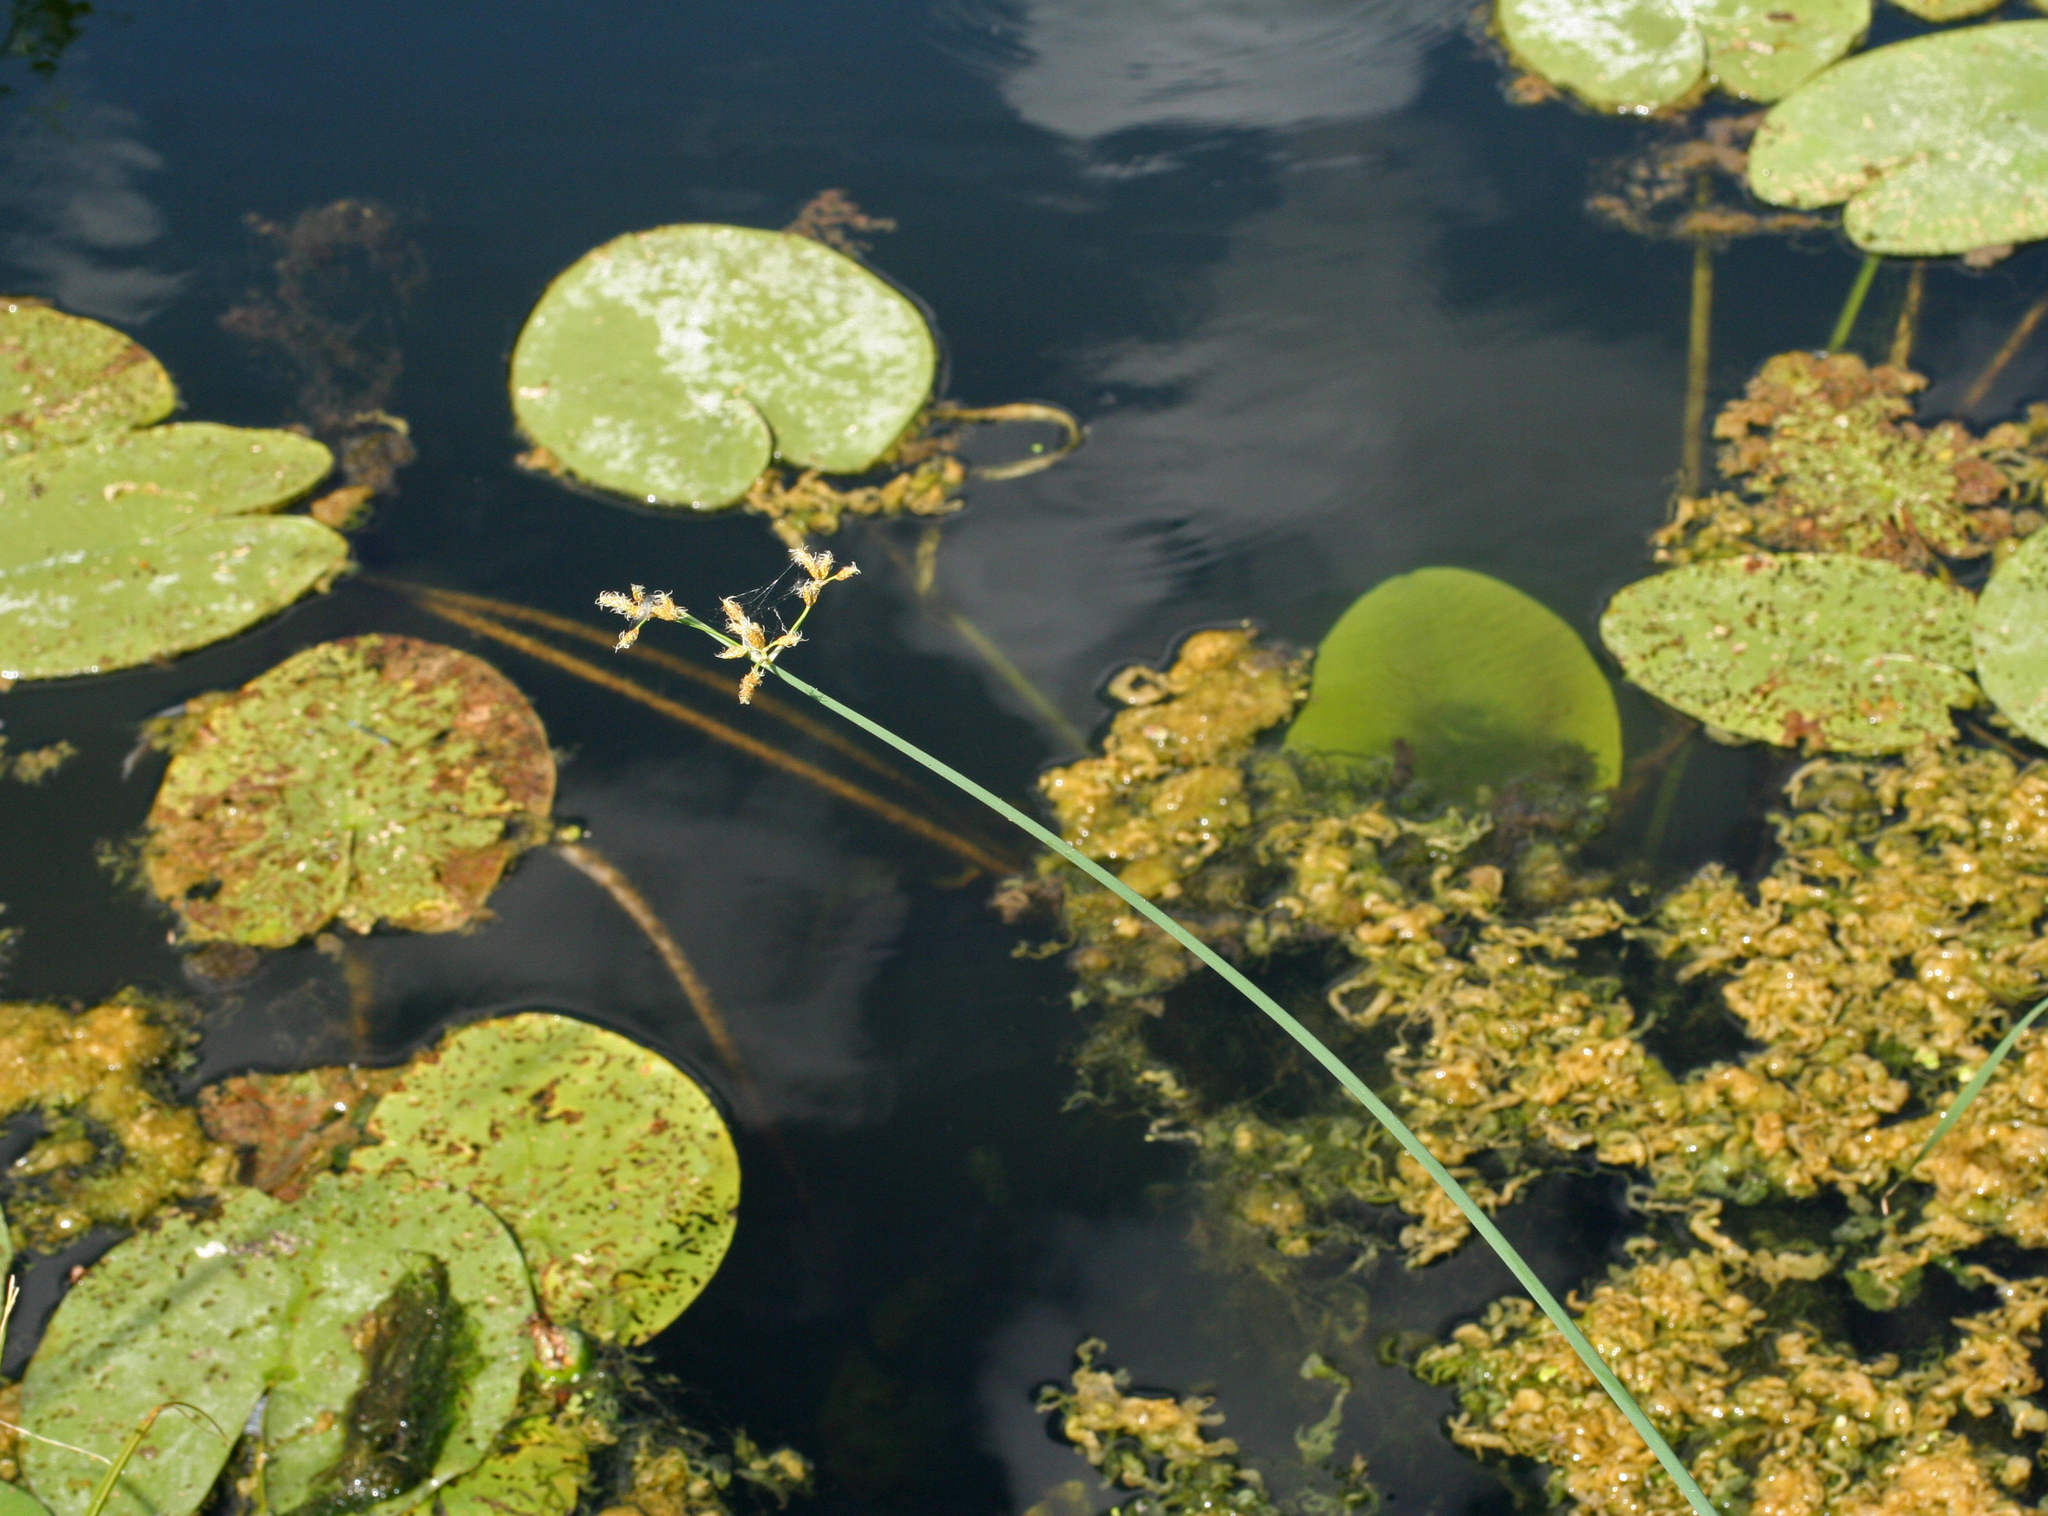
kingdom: Plantae
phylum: Tracheophyta
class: Liliopsida
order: Poales
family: Cyperaceae
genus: Schoenoplectus
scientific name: Schoenoplectus lacustris
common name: Common club-rush
